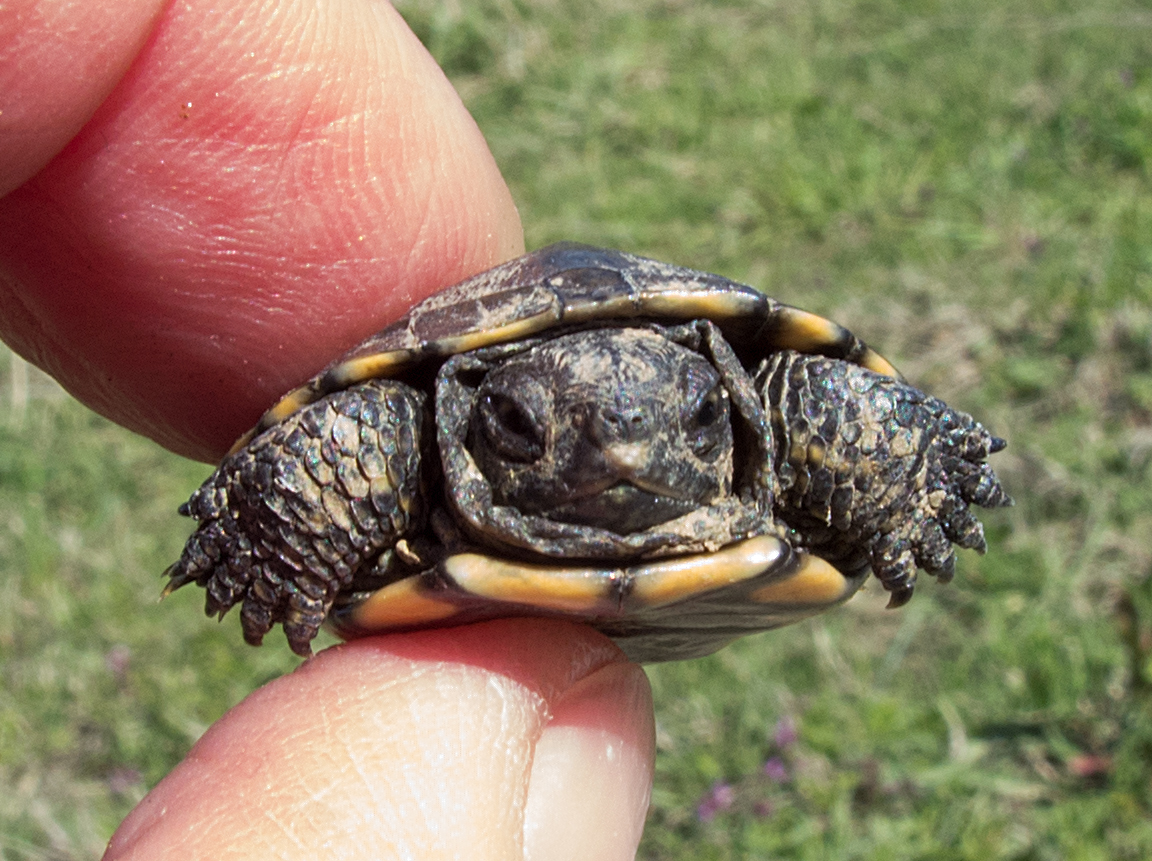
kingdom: Animalia
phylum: Chordata
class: Testudines
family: Emydidae
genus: Emys
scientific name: Emys orbicularis
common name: European pond turtle
